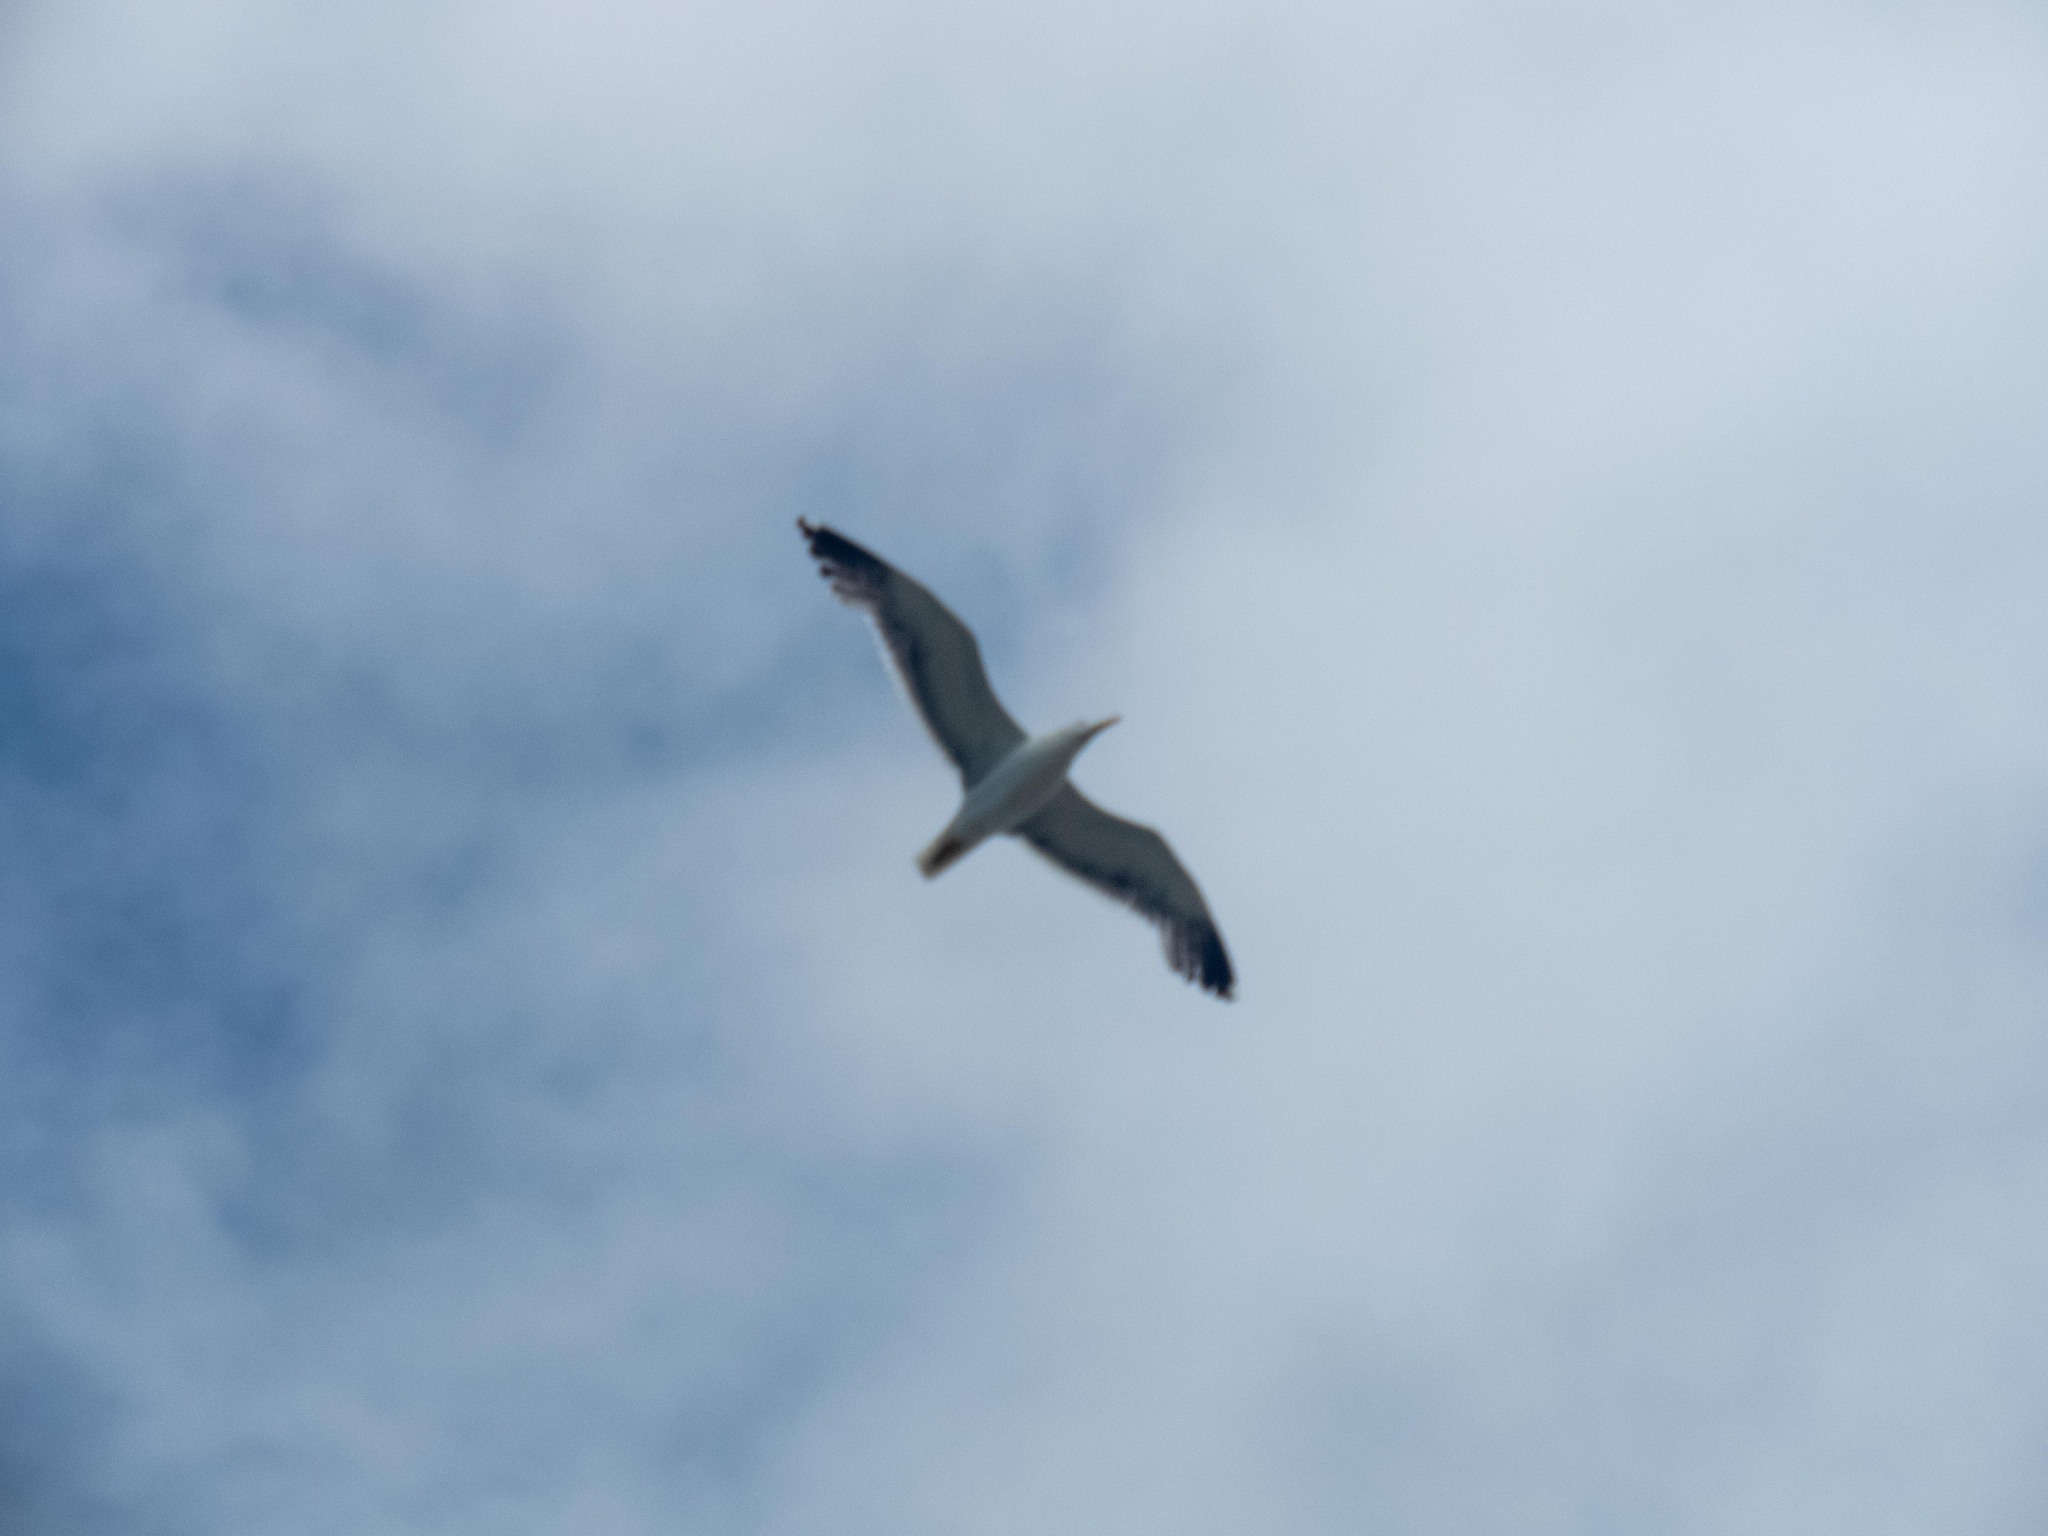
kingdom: Animalia
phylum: Chordata
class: Aves
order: Charadriiformes
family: Laridae
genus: Larus
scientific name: Larus fuscus
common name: Lesser black-backed gull
